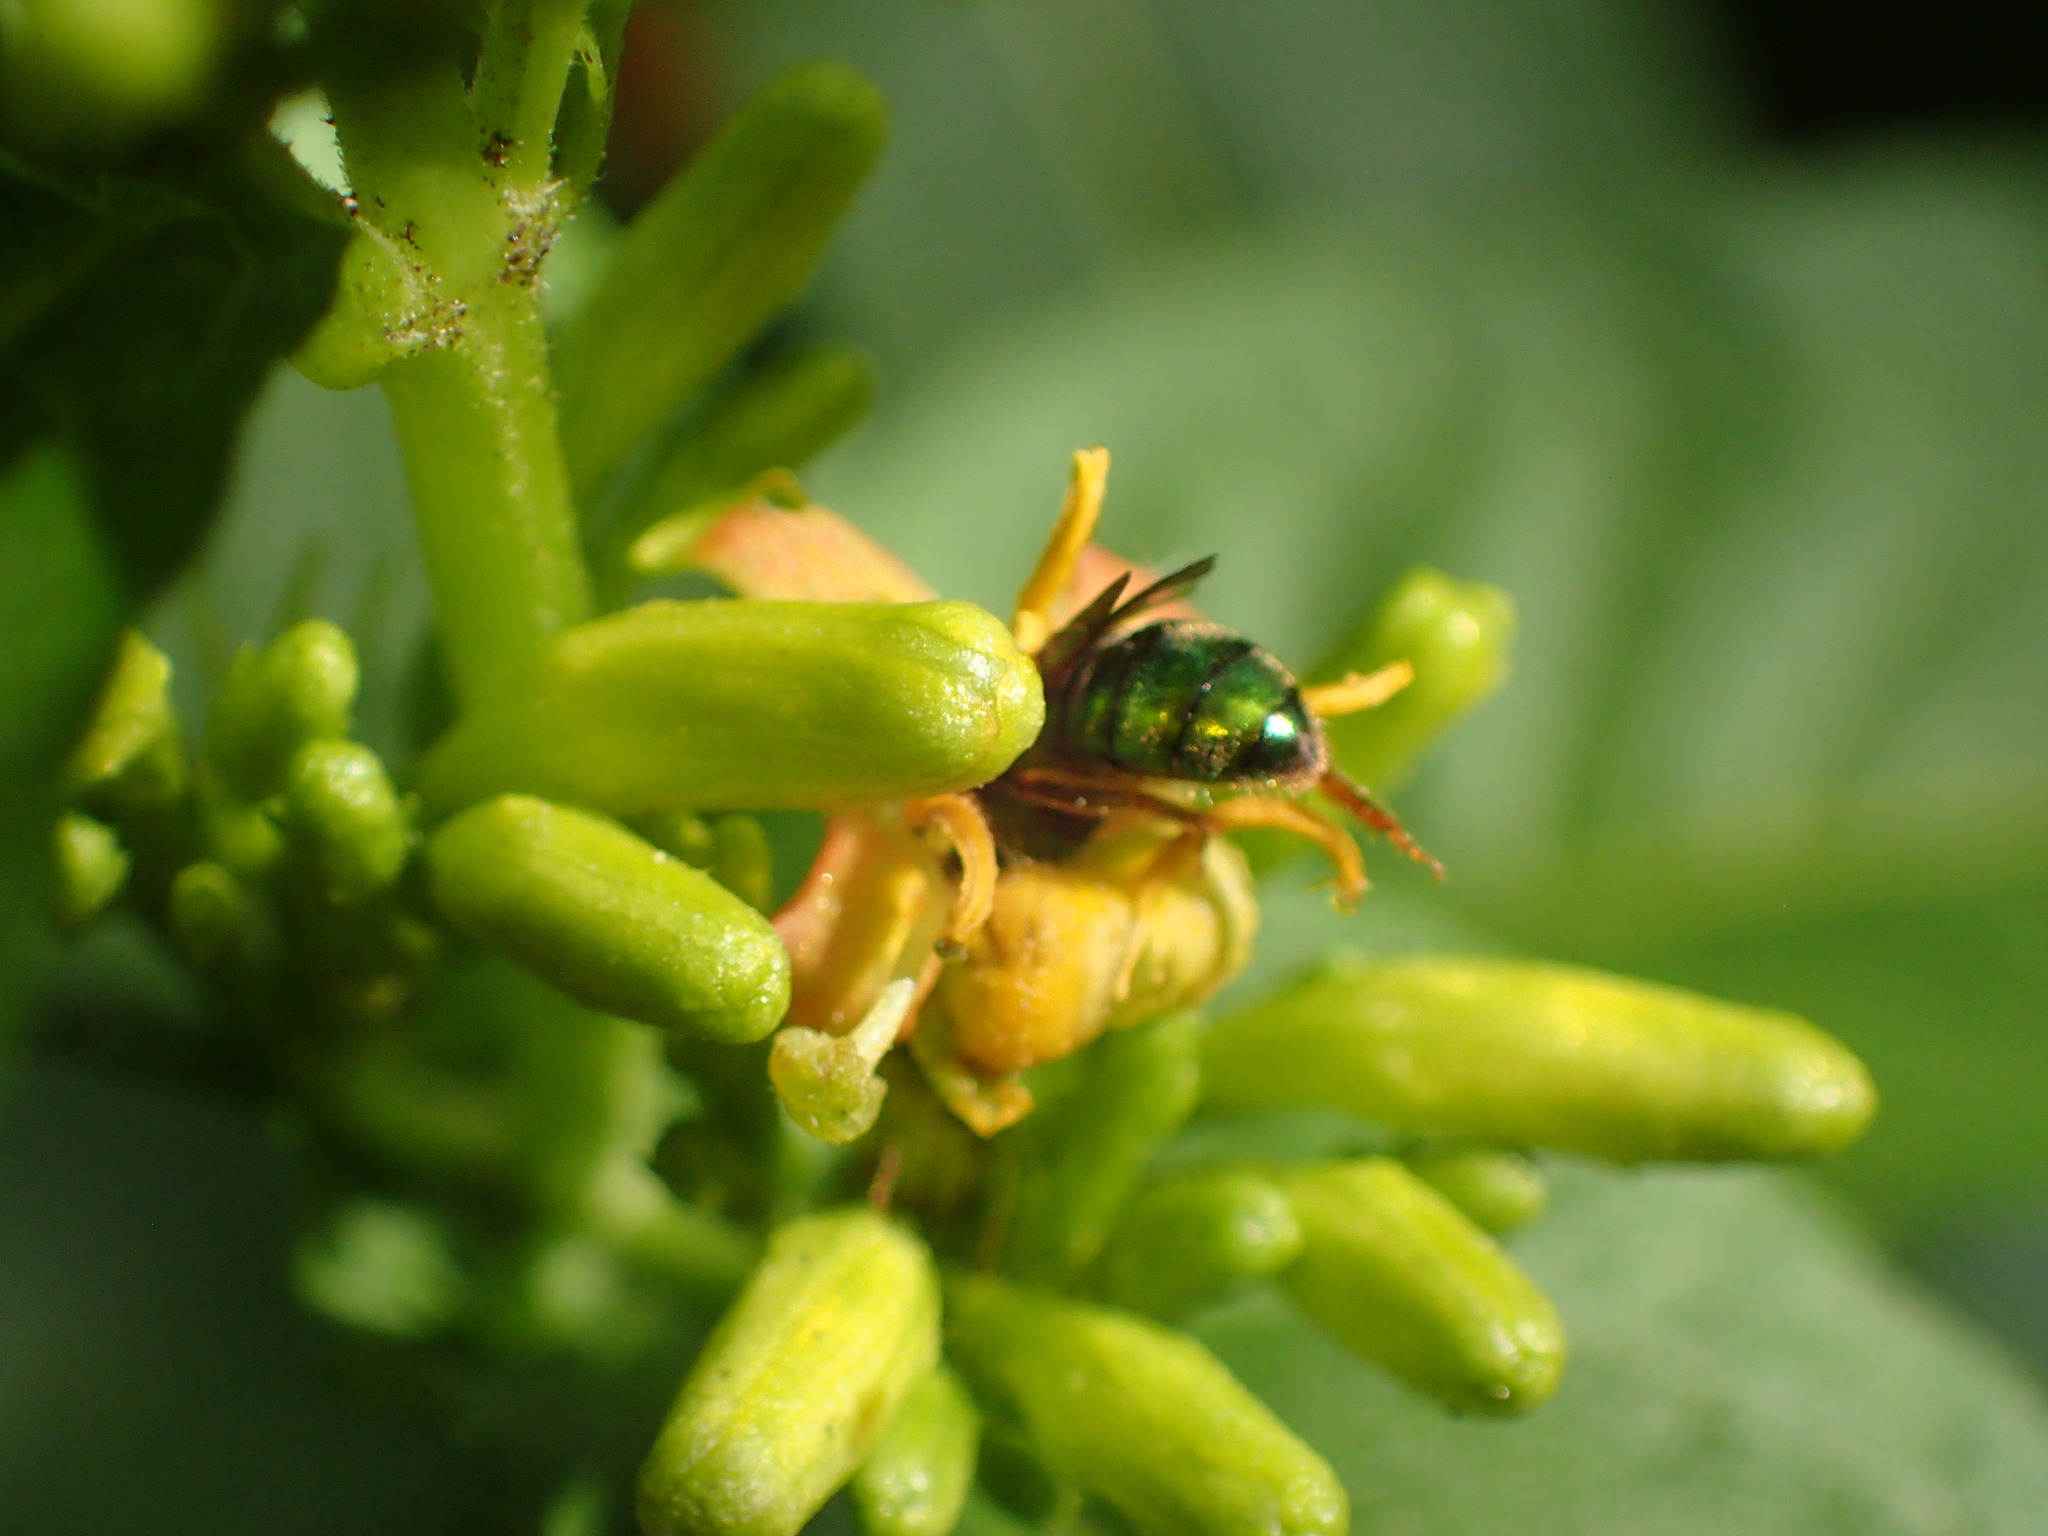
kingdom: Plantae
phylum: Tracheophyta
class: Magnoliopsida
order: Dipsacales
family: Caprifoliaceae
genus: Diervilla
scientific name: Diervilla sessilifolia
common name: Bush-honeysuckle
